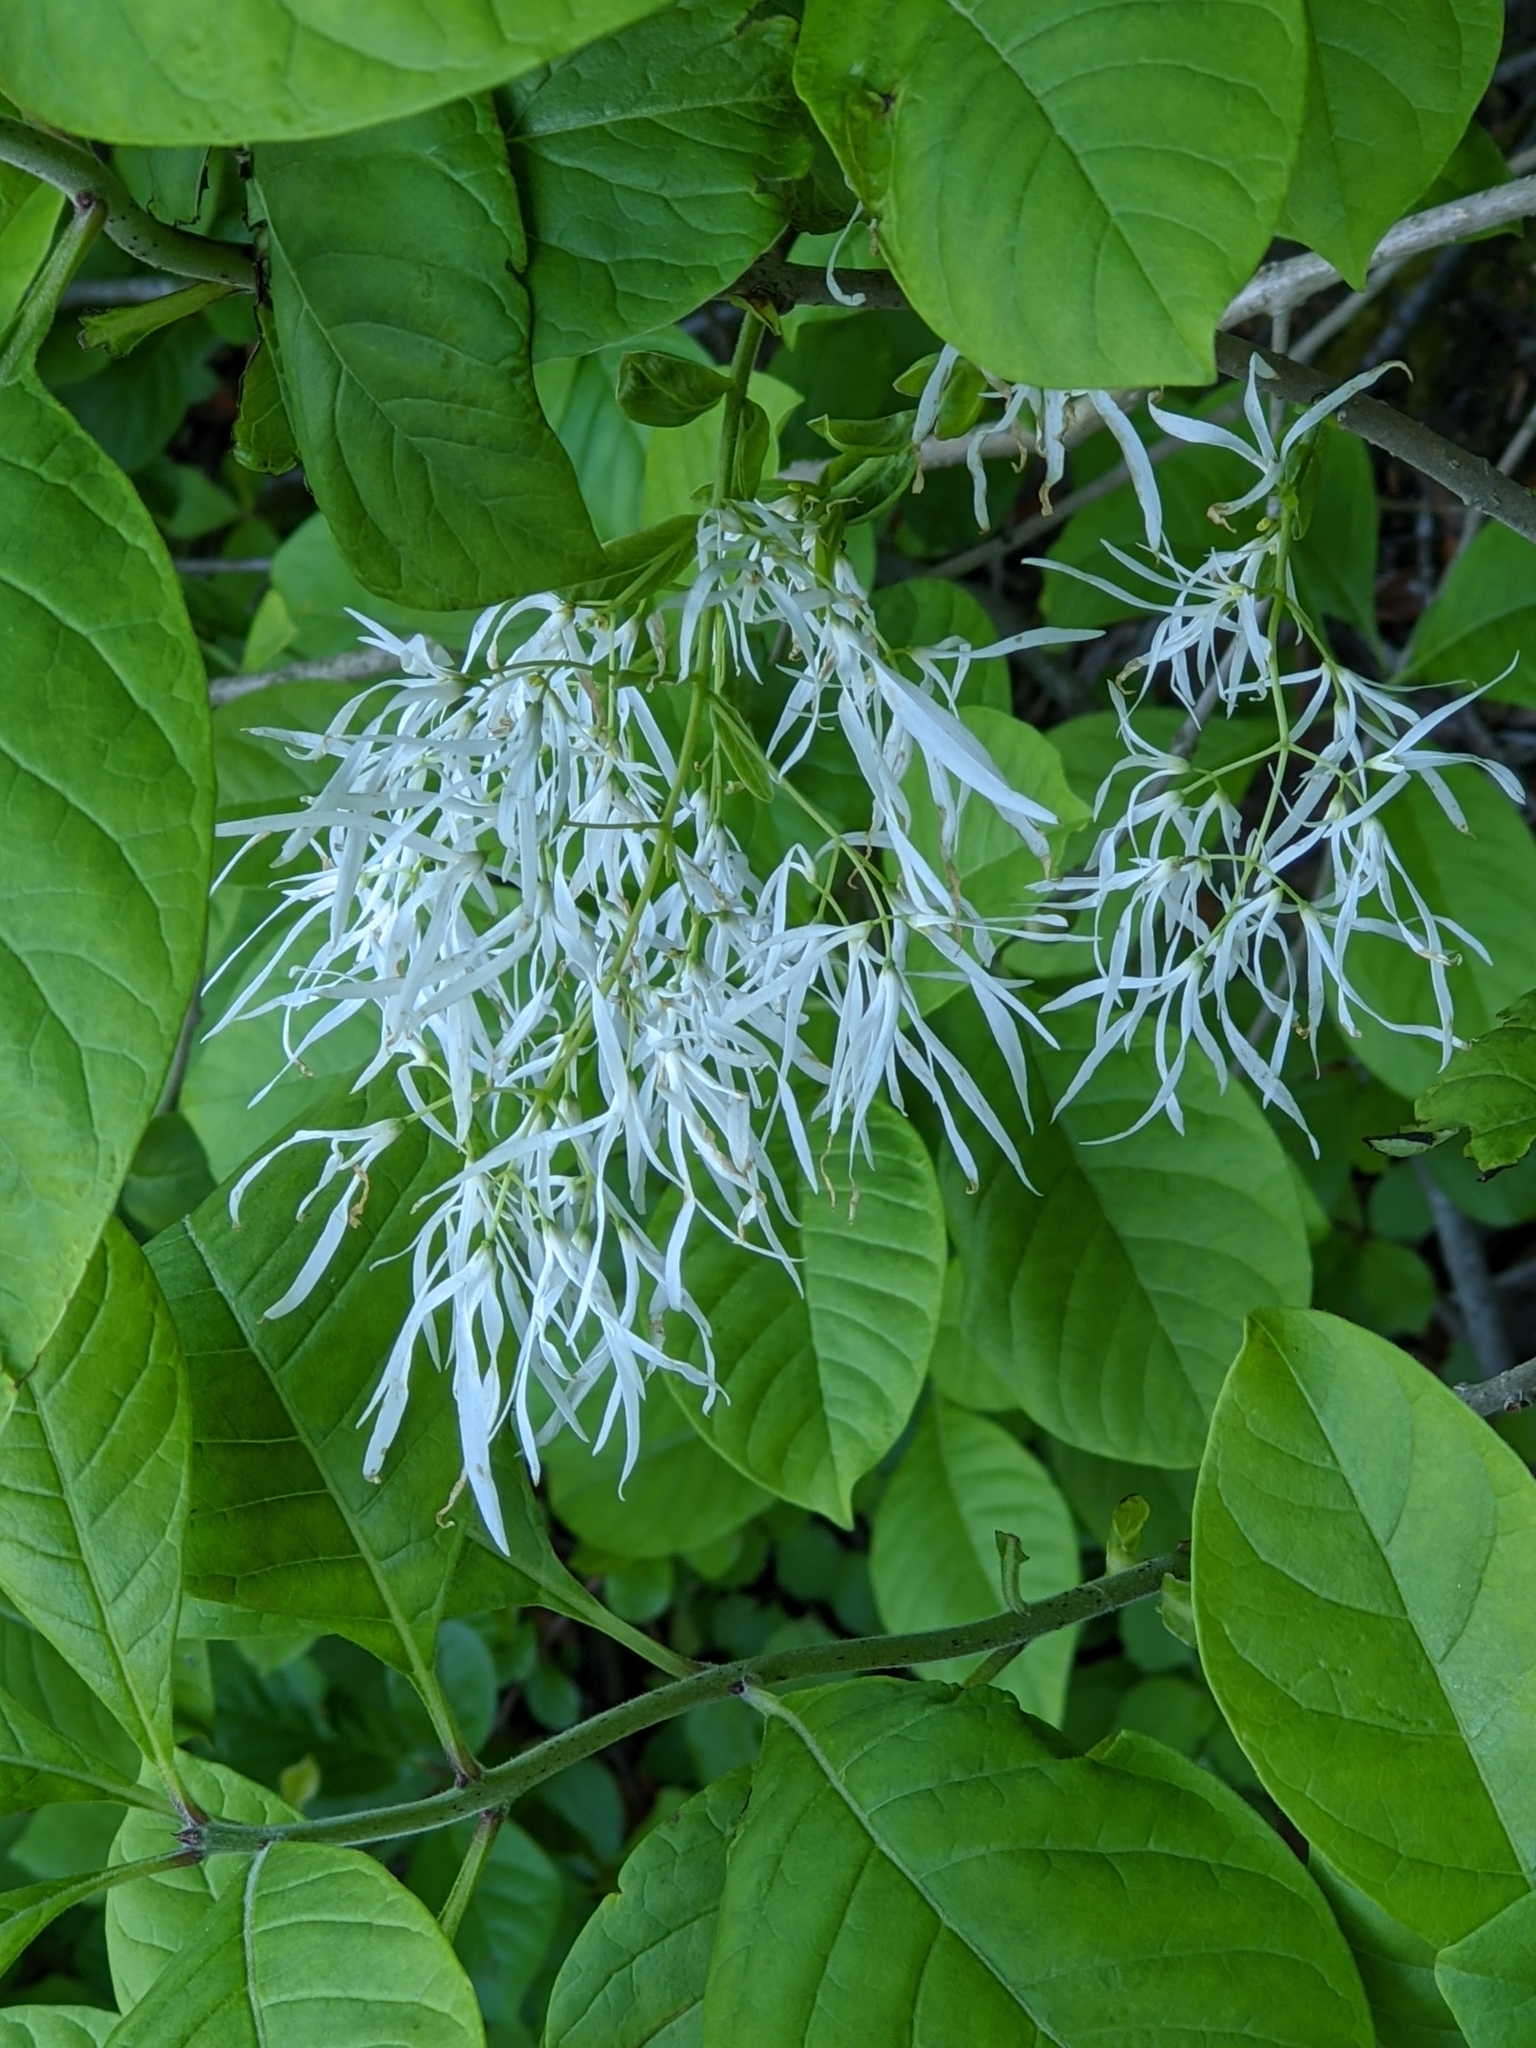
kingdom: Plantae
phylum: Tracheophyta
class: Magnoliopsida
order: Lamiales
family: Oleaceae
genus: Chionanthus
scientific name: Chionanthus virginicus
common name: American fringetree
